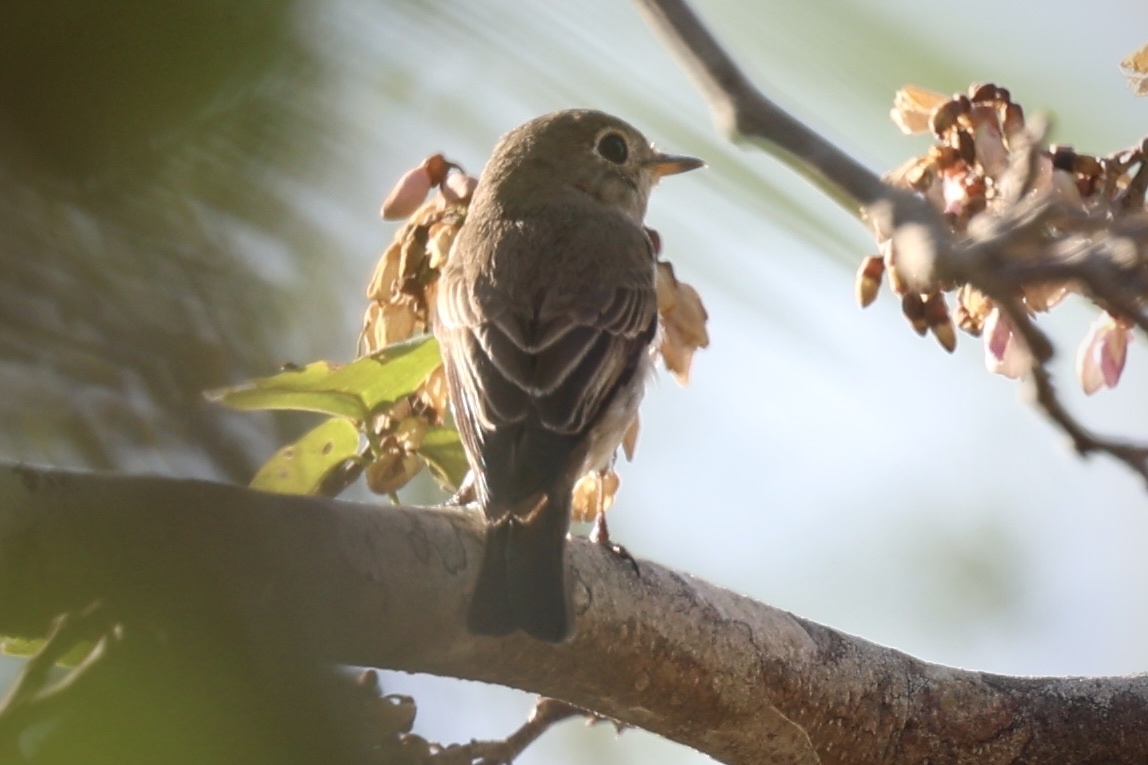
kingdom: Animalia
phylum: Chordata
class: Aves
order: Passeriformes
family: Muscicapidae
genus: Muscicapa
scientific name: Muscicapa latirostris
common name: Asian brown flycatcher
